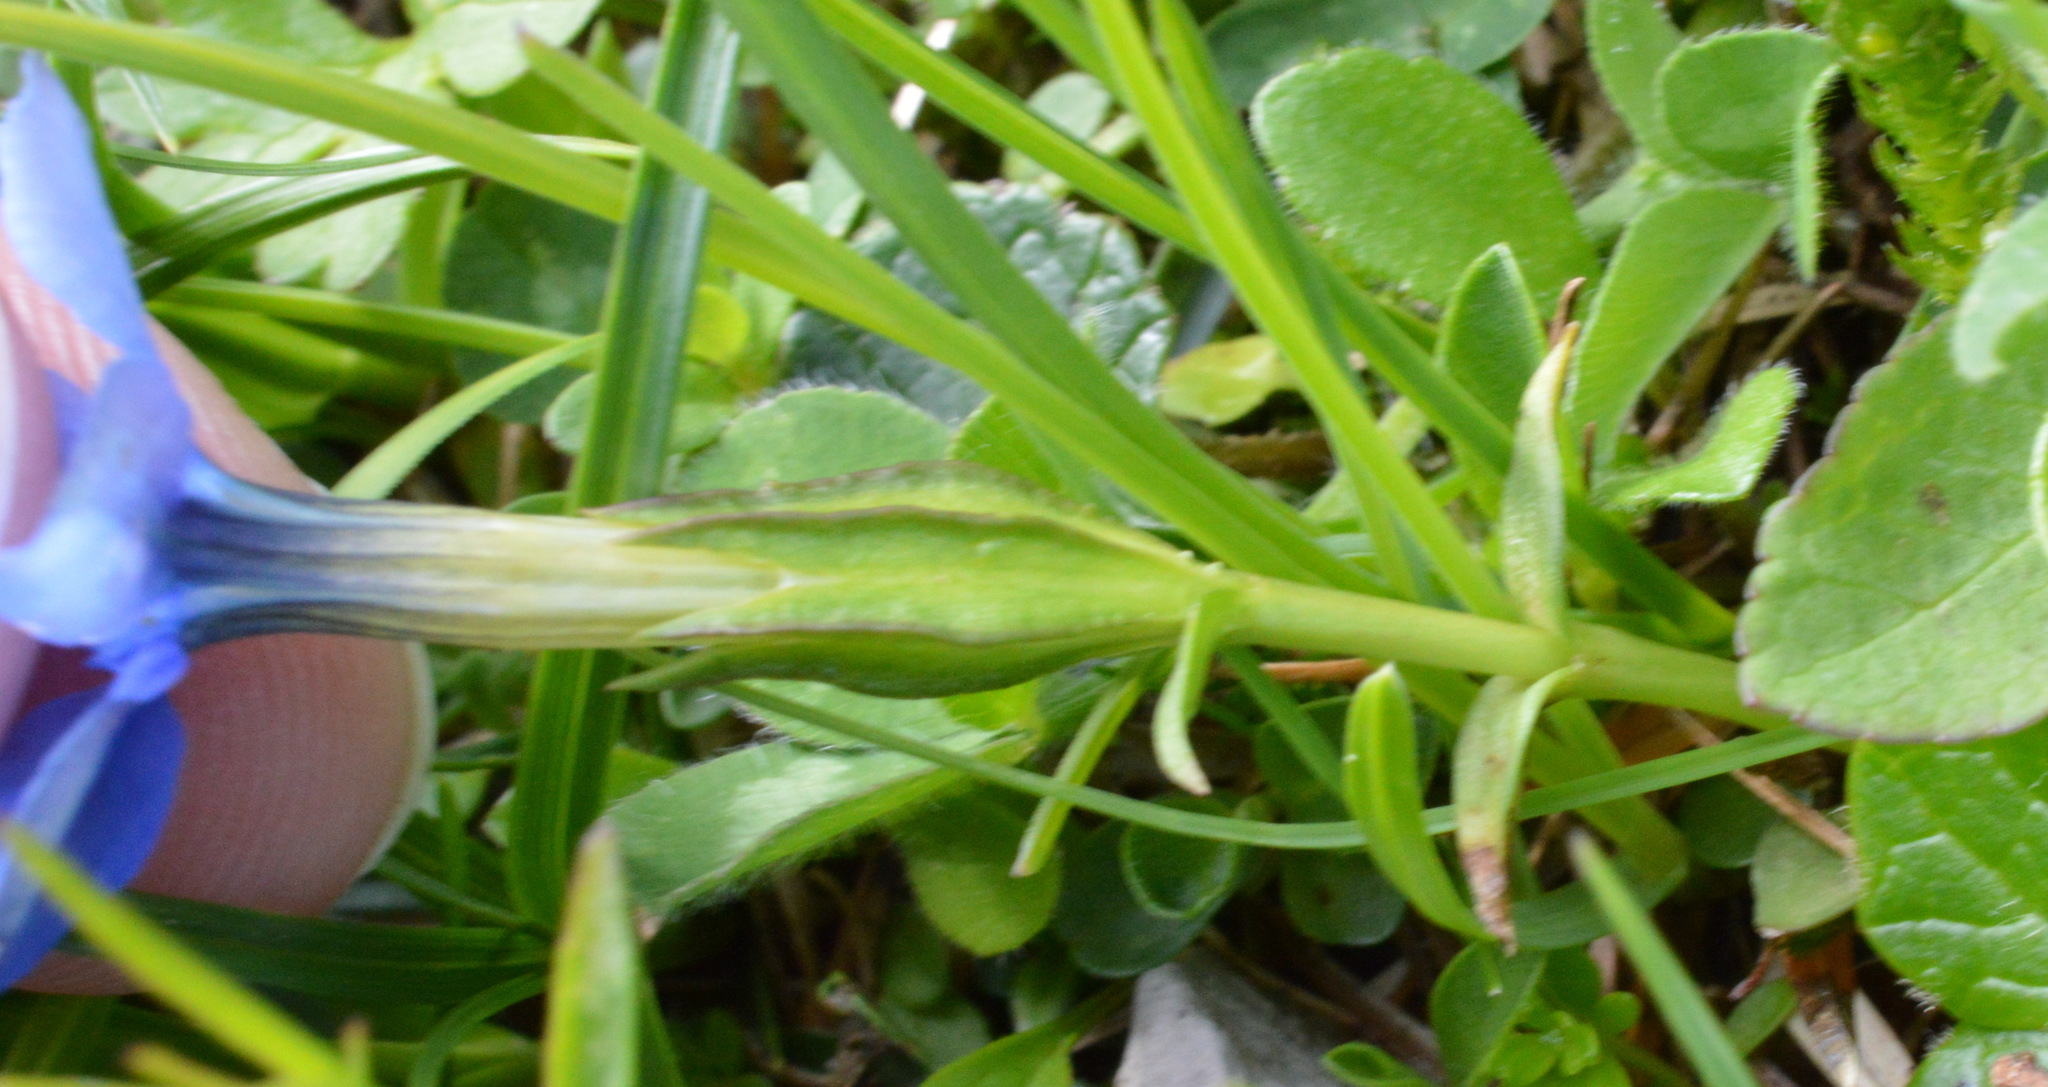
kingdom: Plantae
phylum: Tracheophyta
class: Magnoliopsida
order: Gentianales
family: Gentianaceae
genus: Gentiana
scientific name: Gentiana verna
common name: Spring gentian
